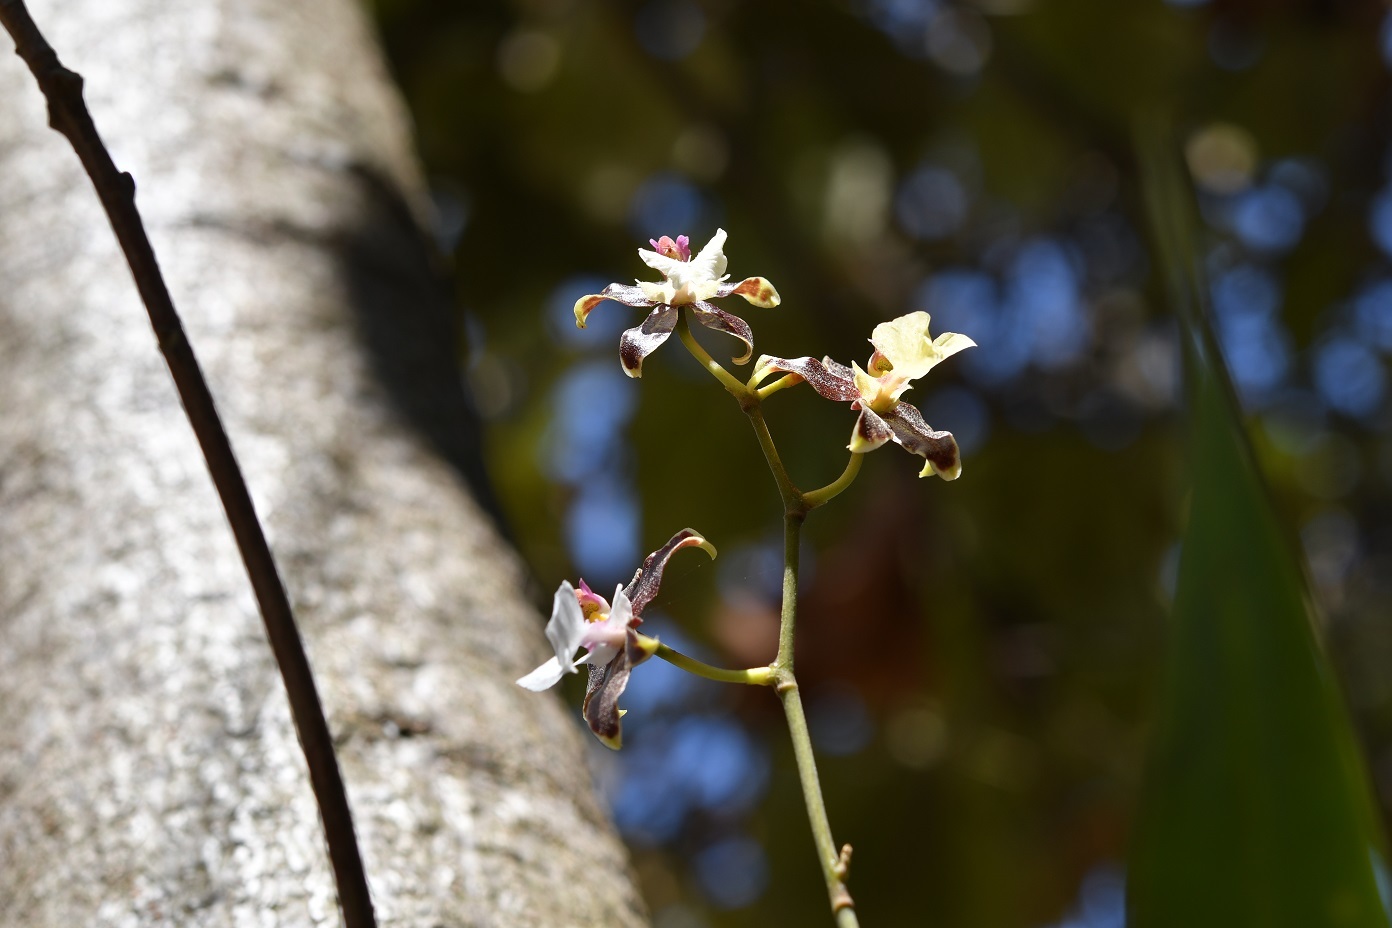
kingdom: Plantae
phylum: Tracheophyta
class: Liliopsida
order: Asparagales
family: Orchidaceae
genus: Oncidium
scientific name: Oncidium leucochilum
